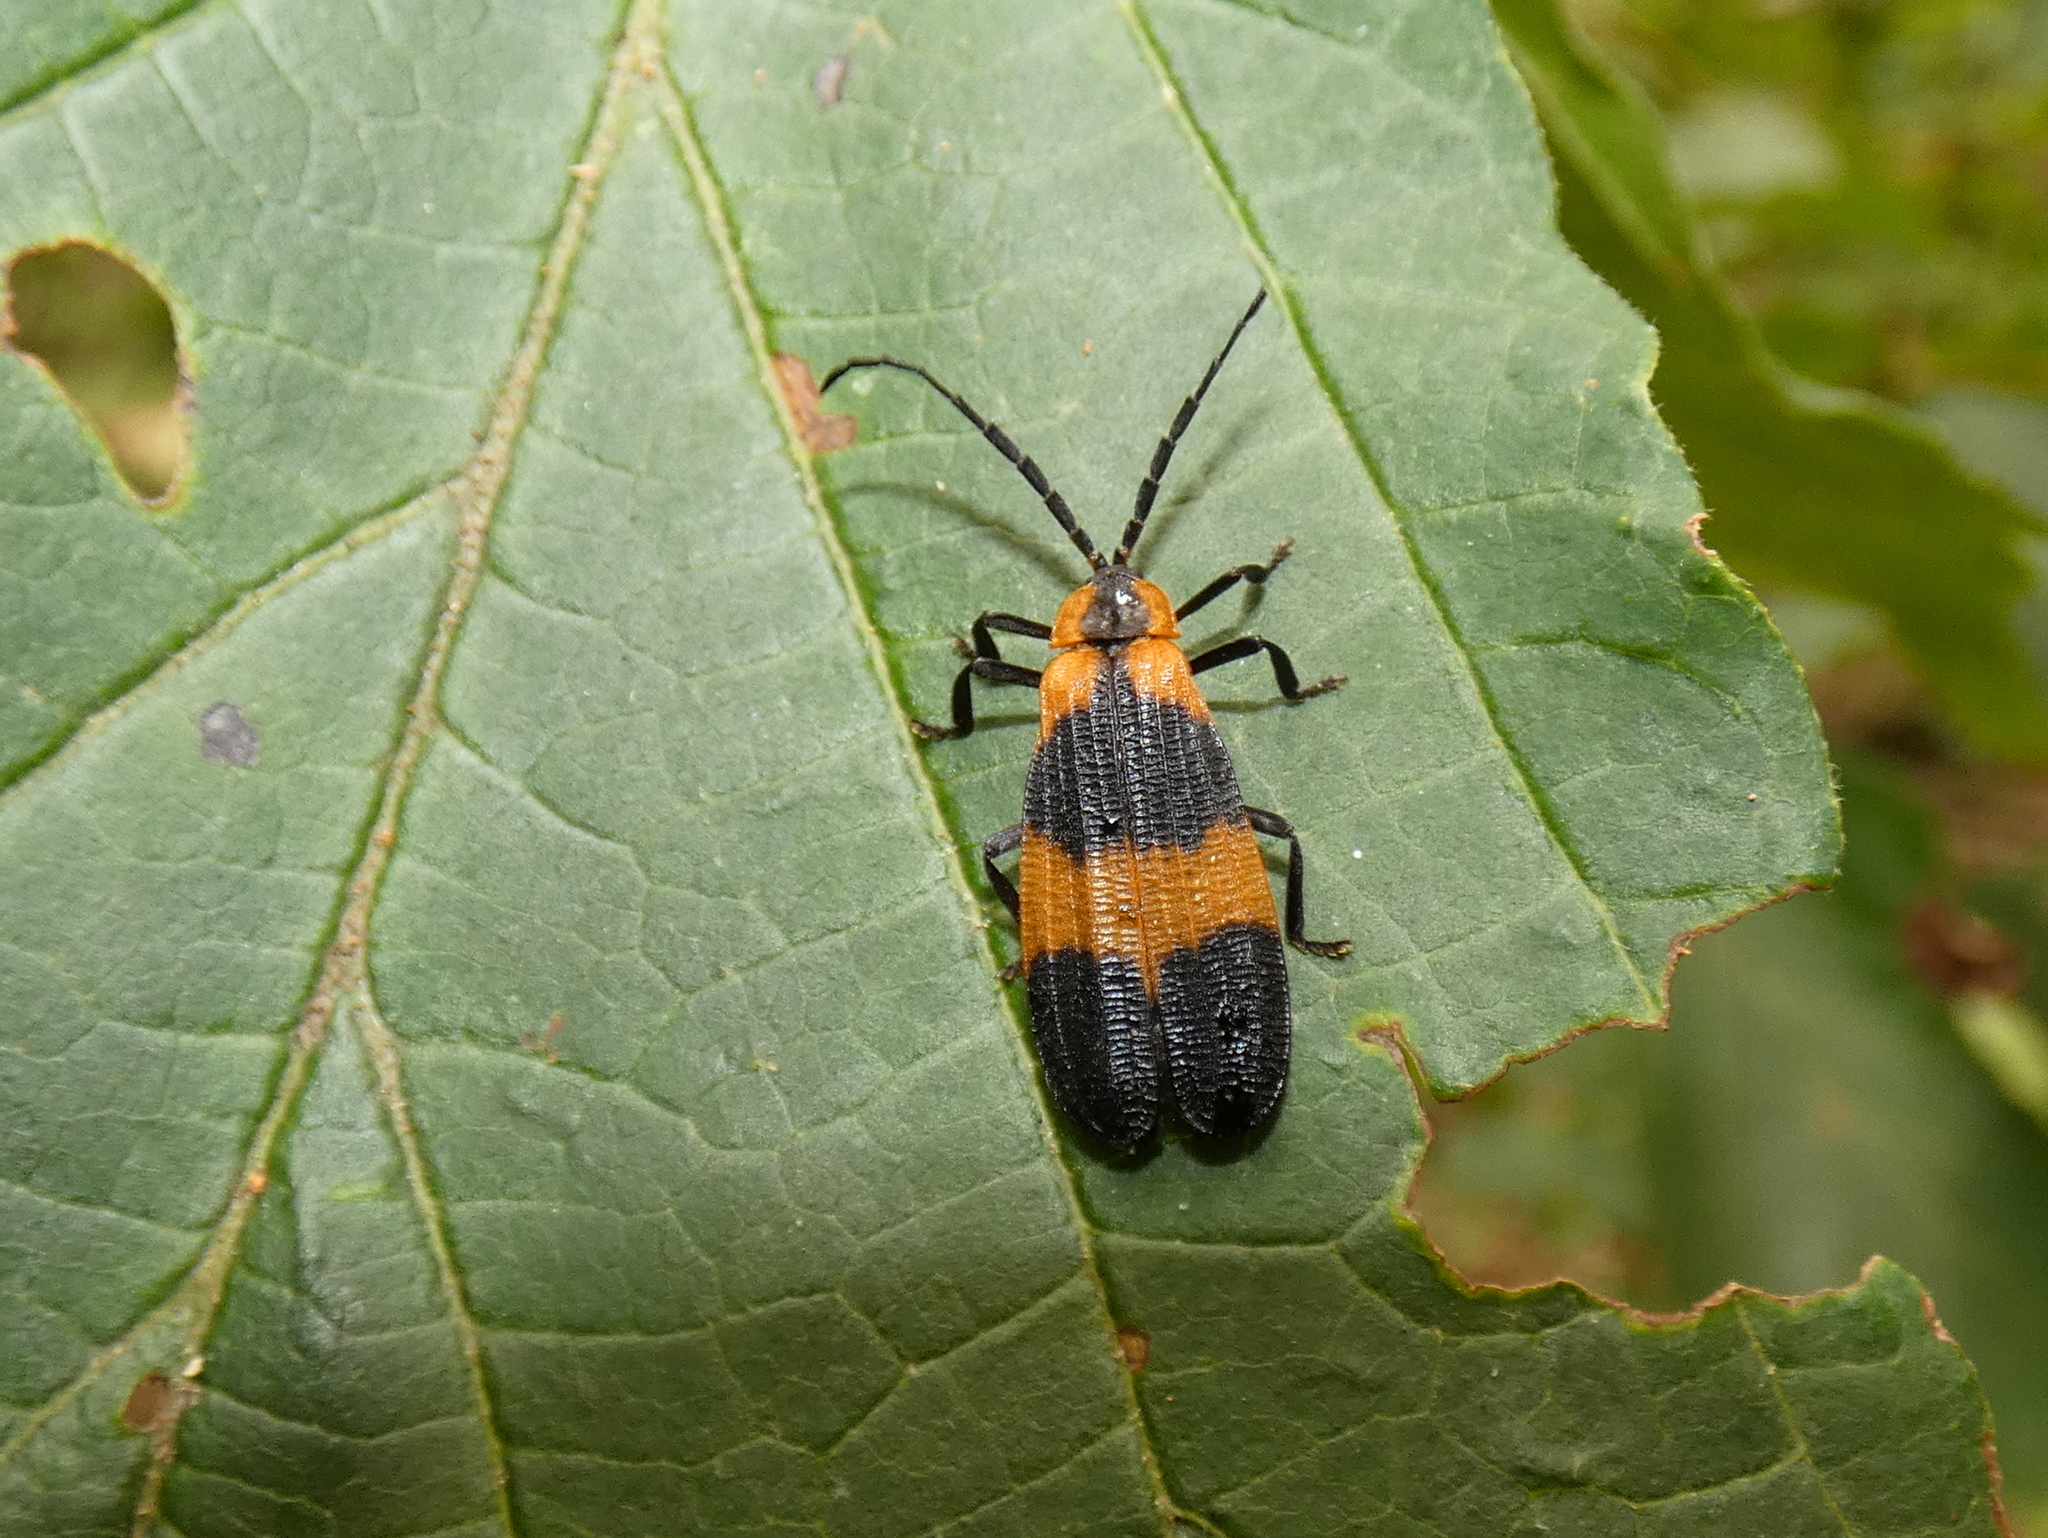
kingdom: Animalia
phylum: Arthropoda
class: Insecta
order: Coleoptera
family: Lycidae
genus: Calopteron
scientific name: Calopteron reticulatum
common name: Banded net-winged beetle
